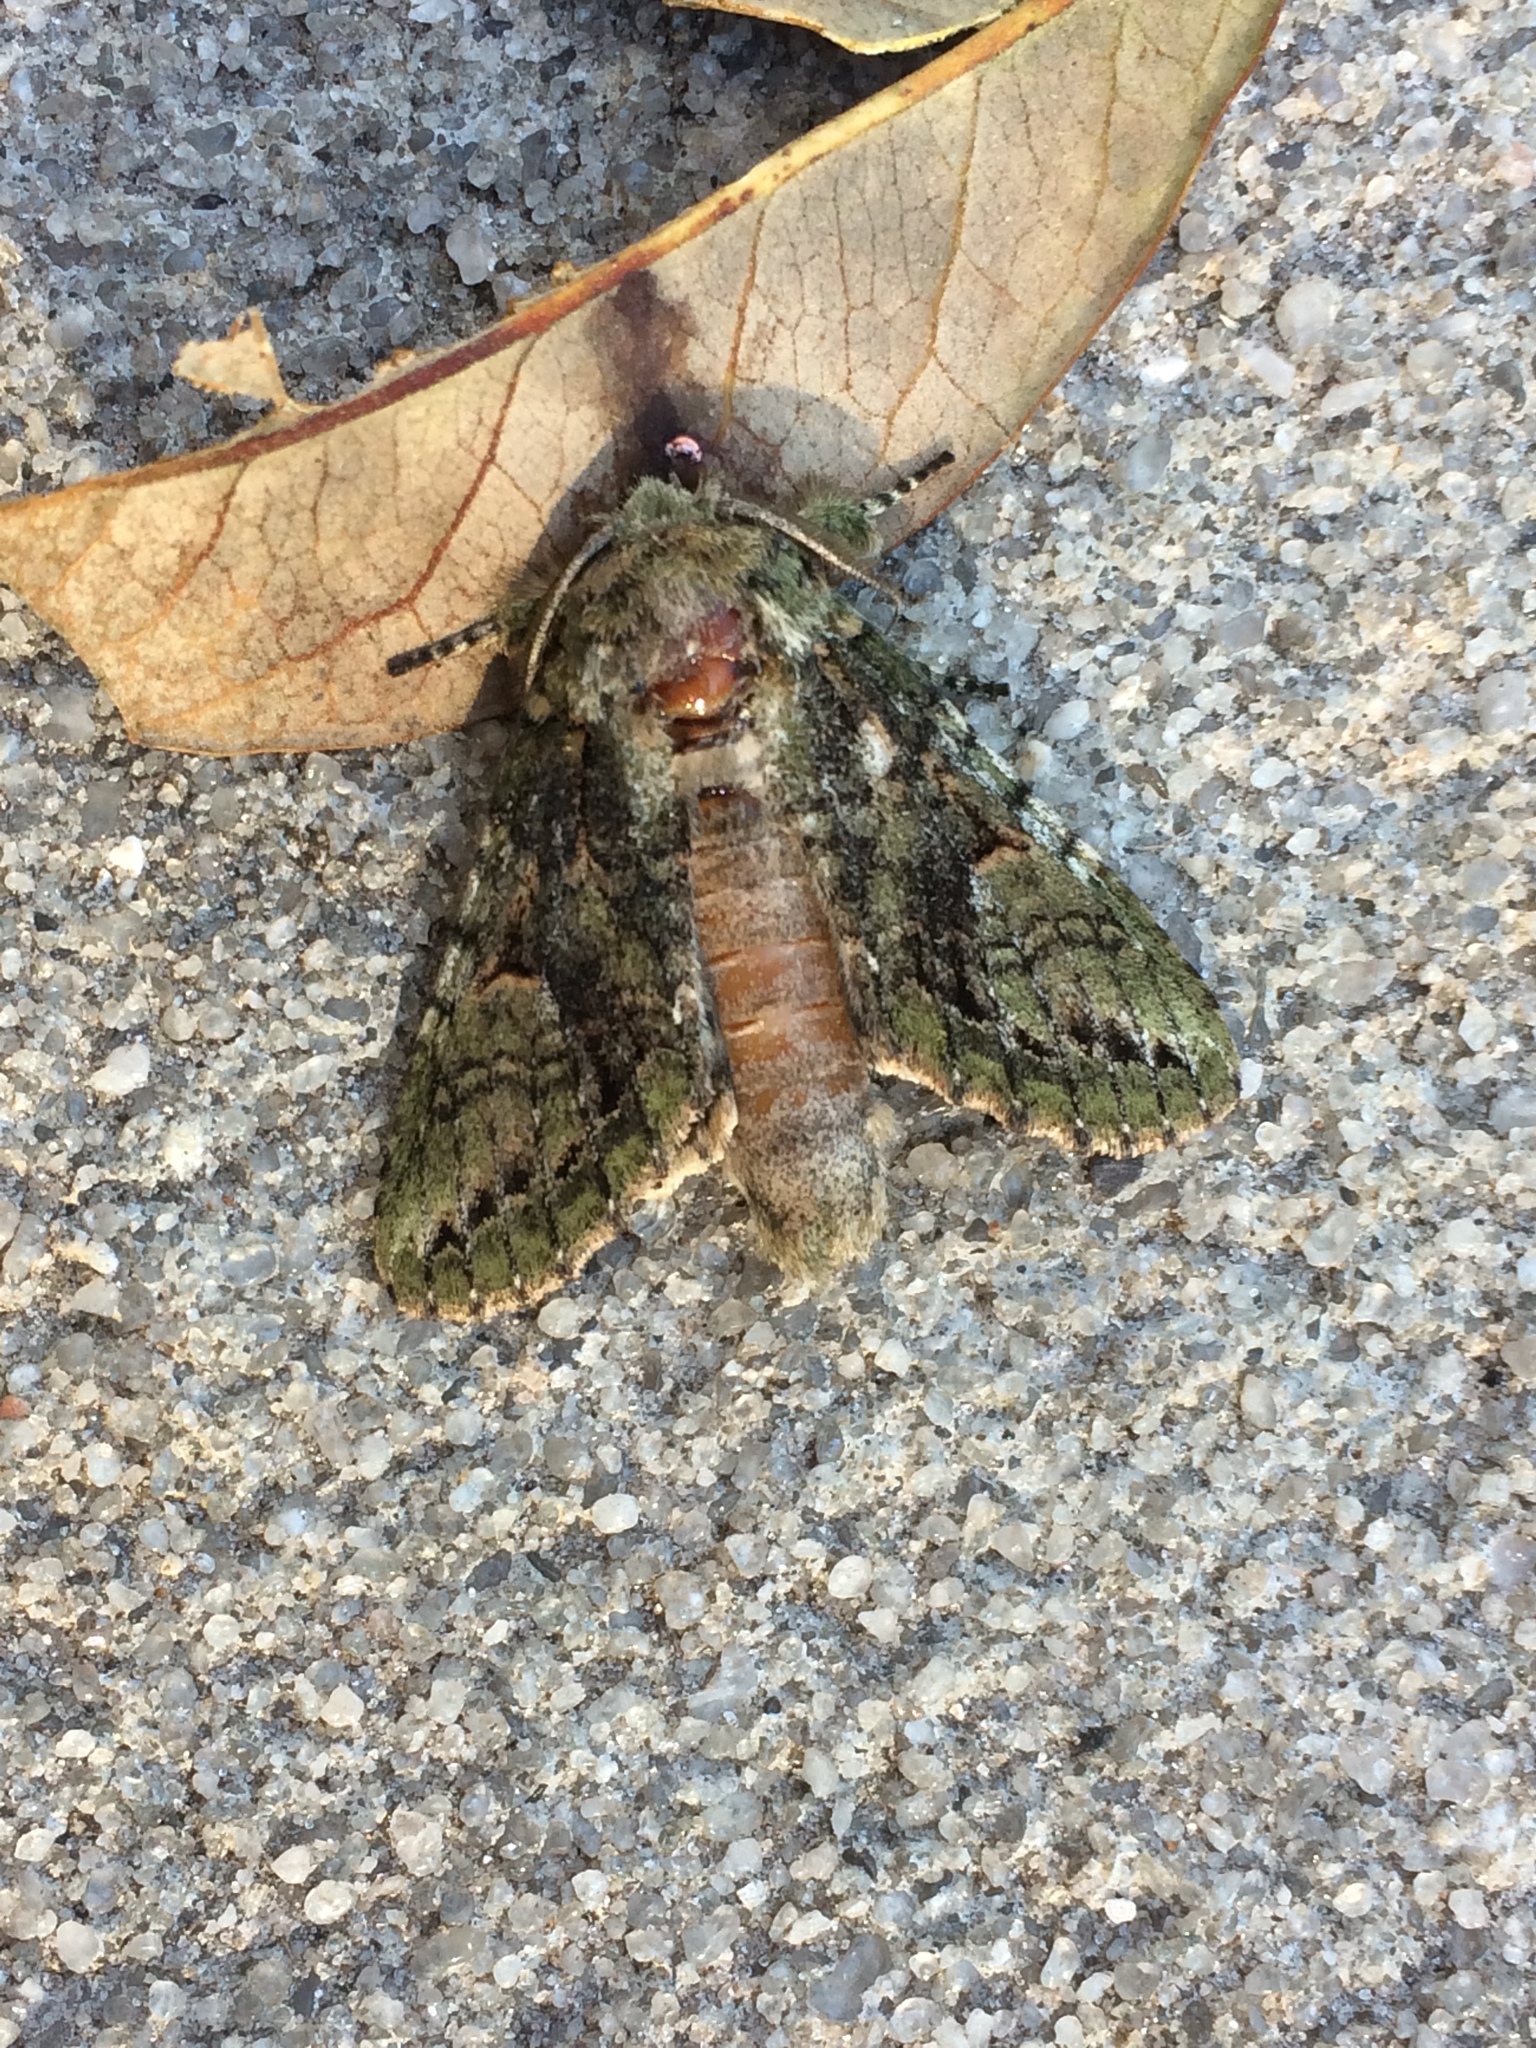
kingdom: Animalia
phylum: Arthropoda
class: Insecta
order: Lepidoptera
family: Notodontidae
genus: Heterocampa
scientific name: Heterocampa umbrata
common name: White-blotched heterocampa
